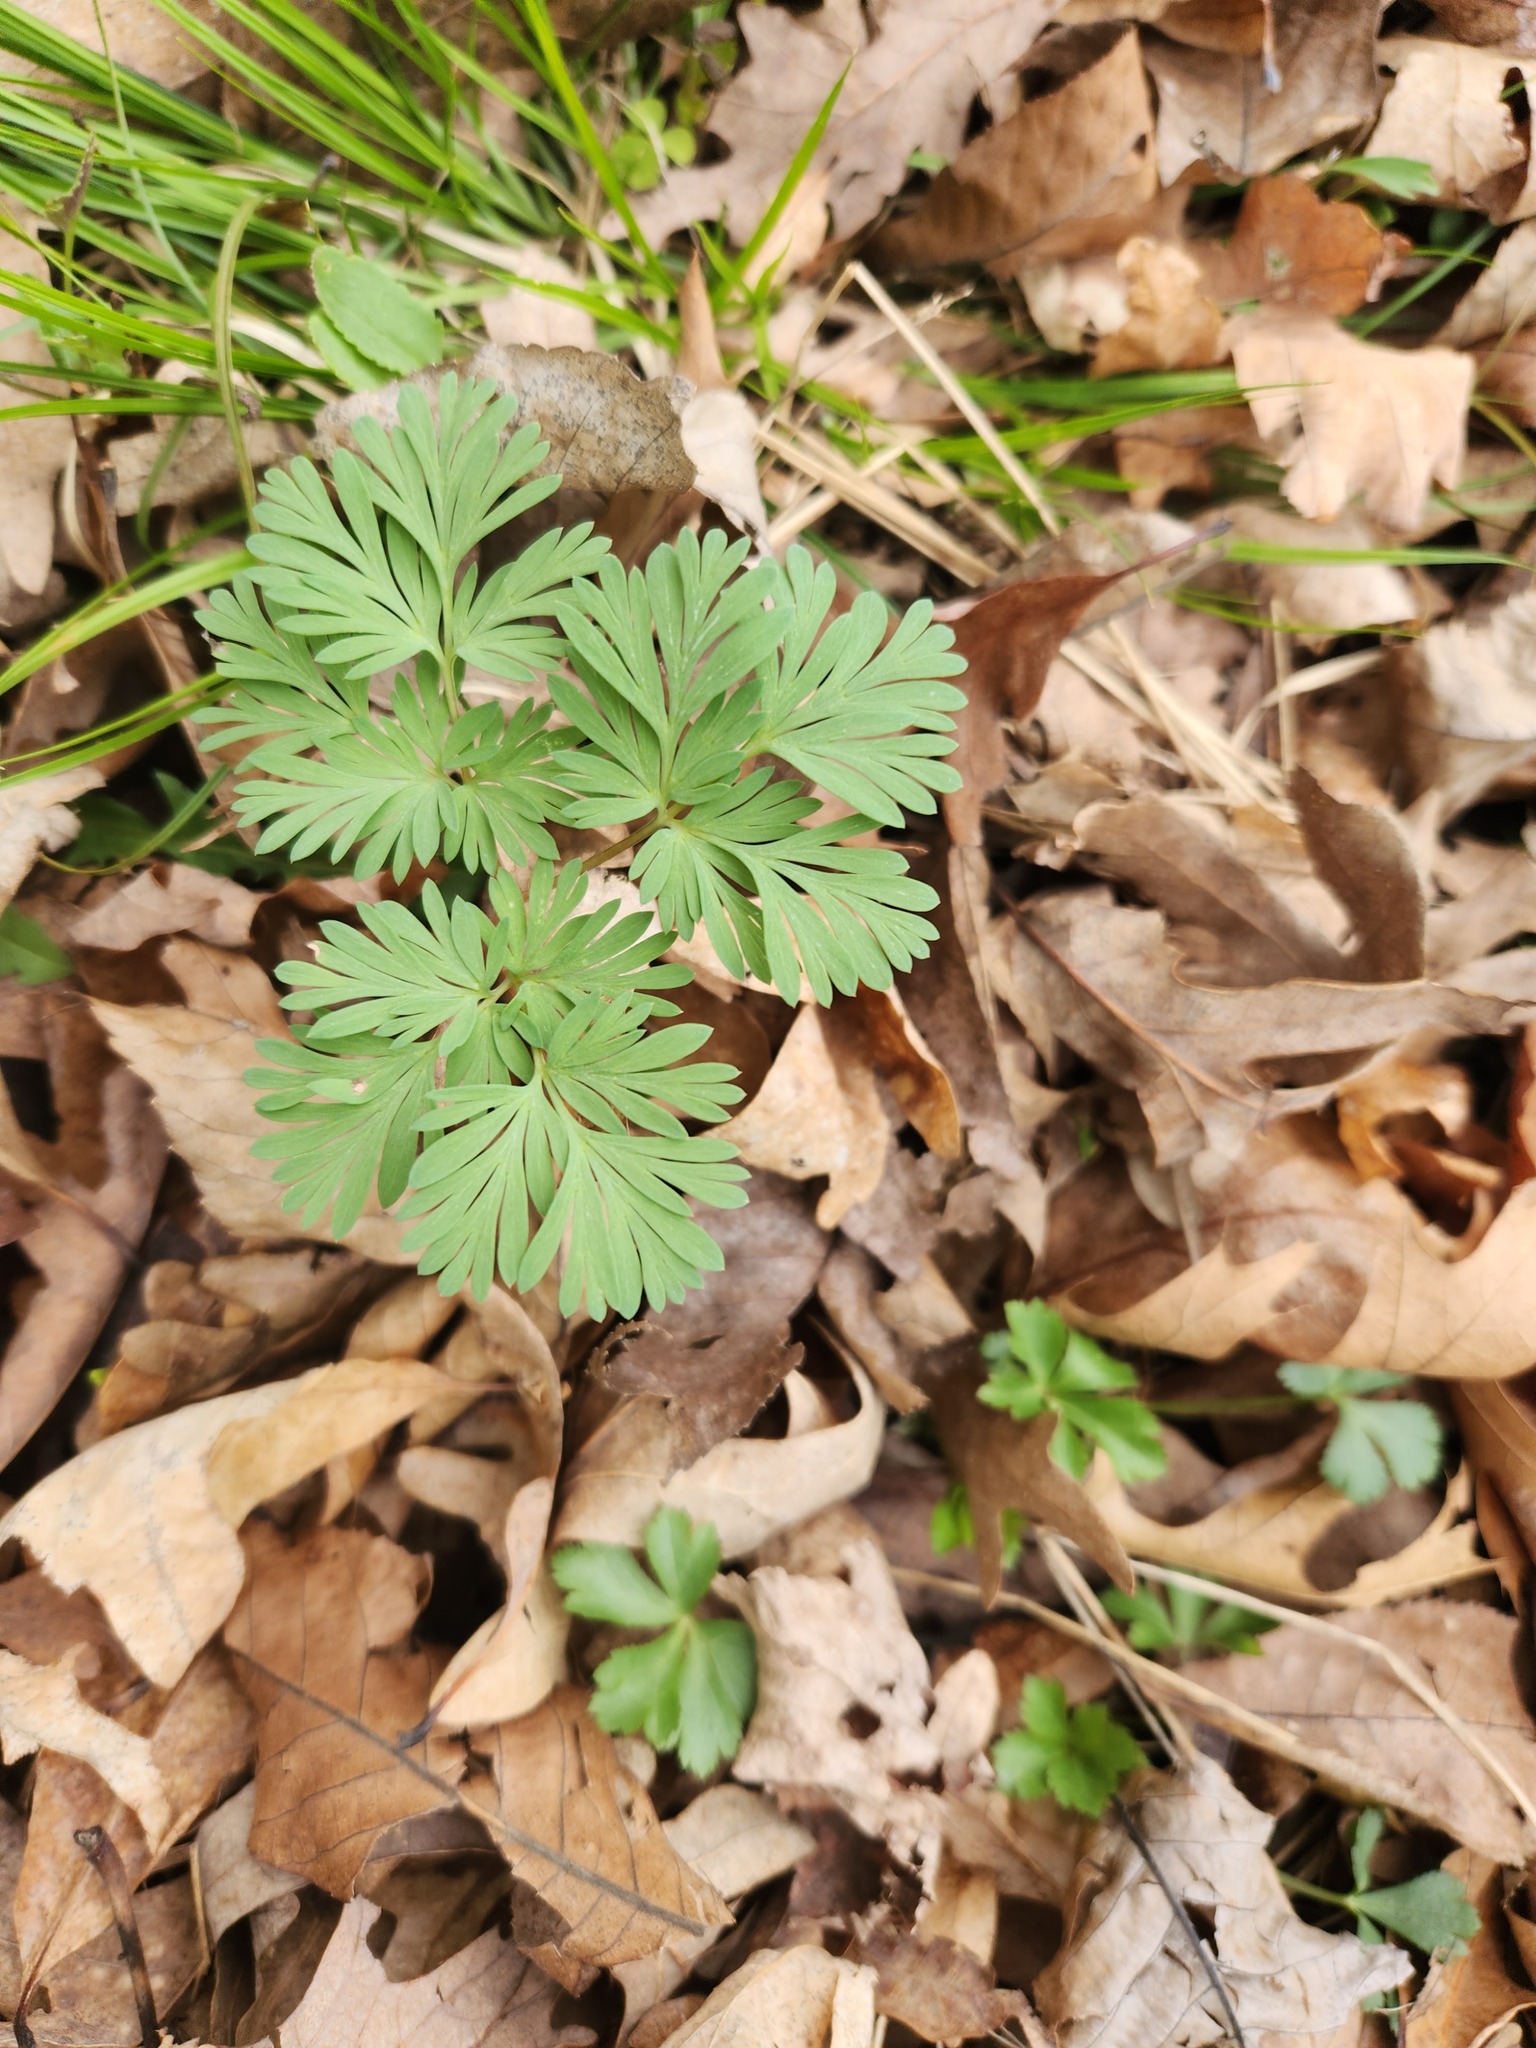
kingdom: Plantae
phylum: Tracheophyta
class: Magnoliopsida
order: Ranunculales
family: Papaveraceae
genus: Dicentra
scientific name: Dicentra cucullaria
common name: Dutchman's breeches
